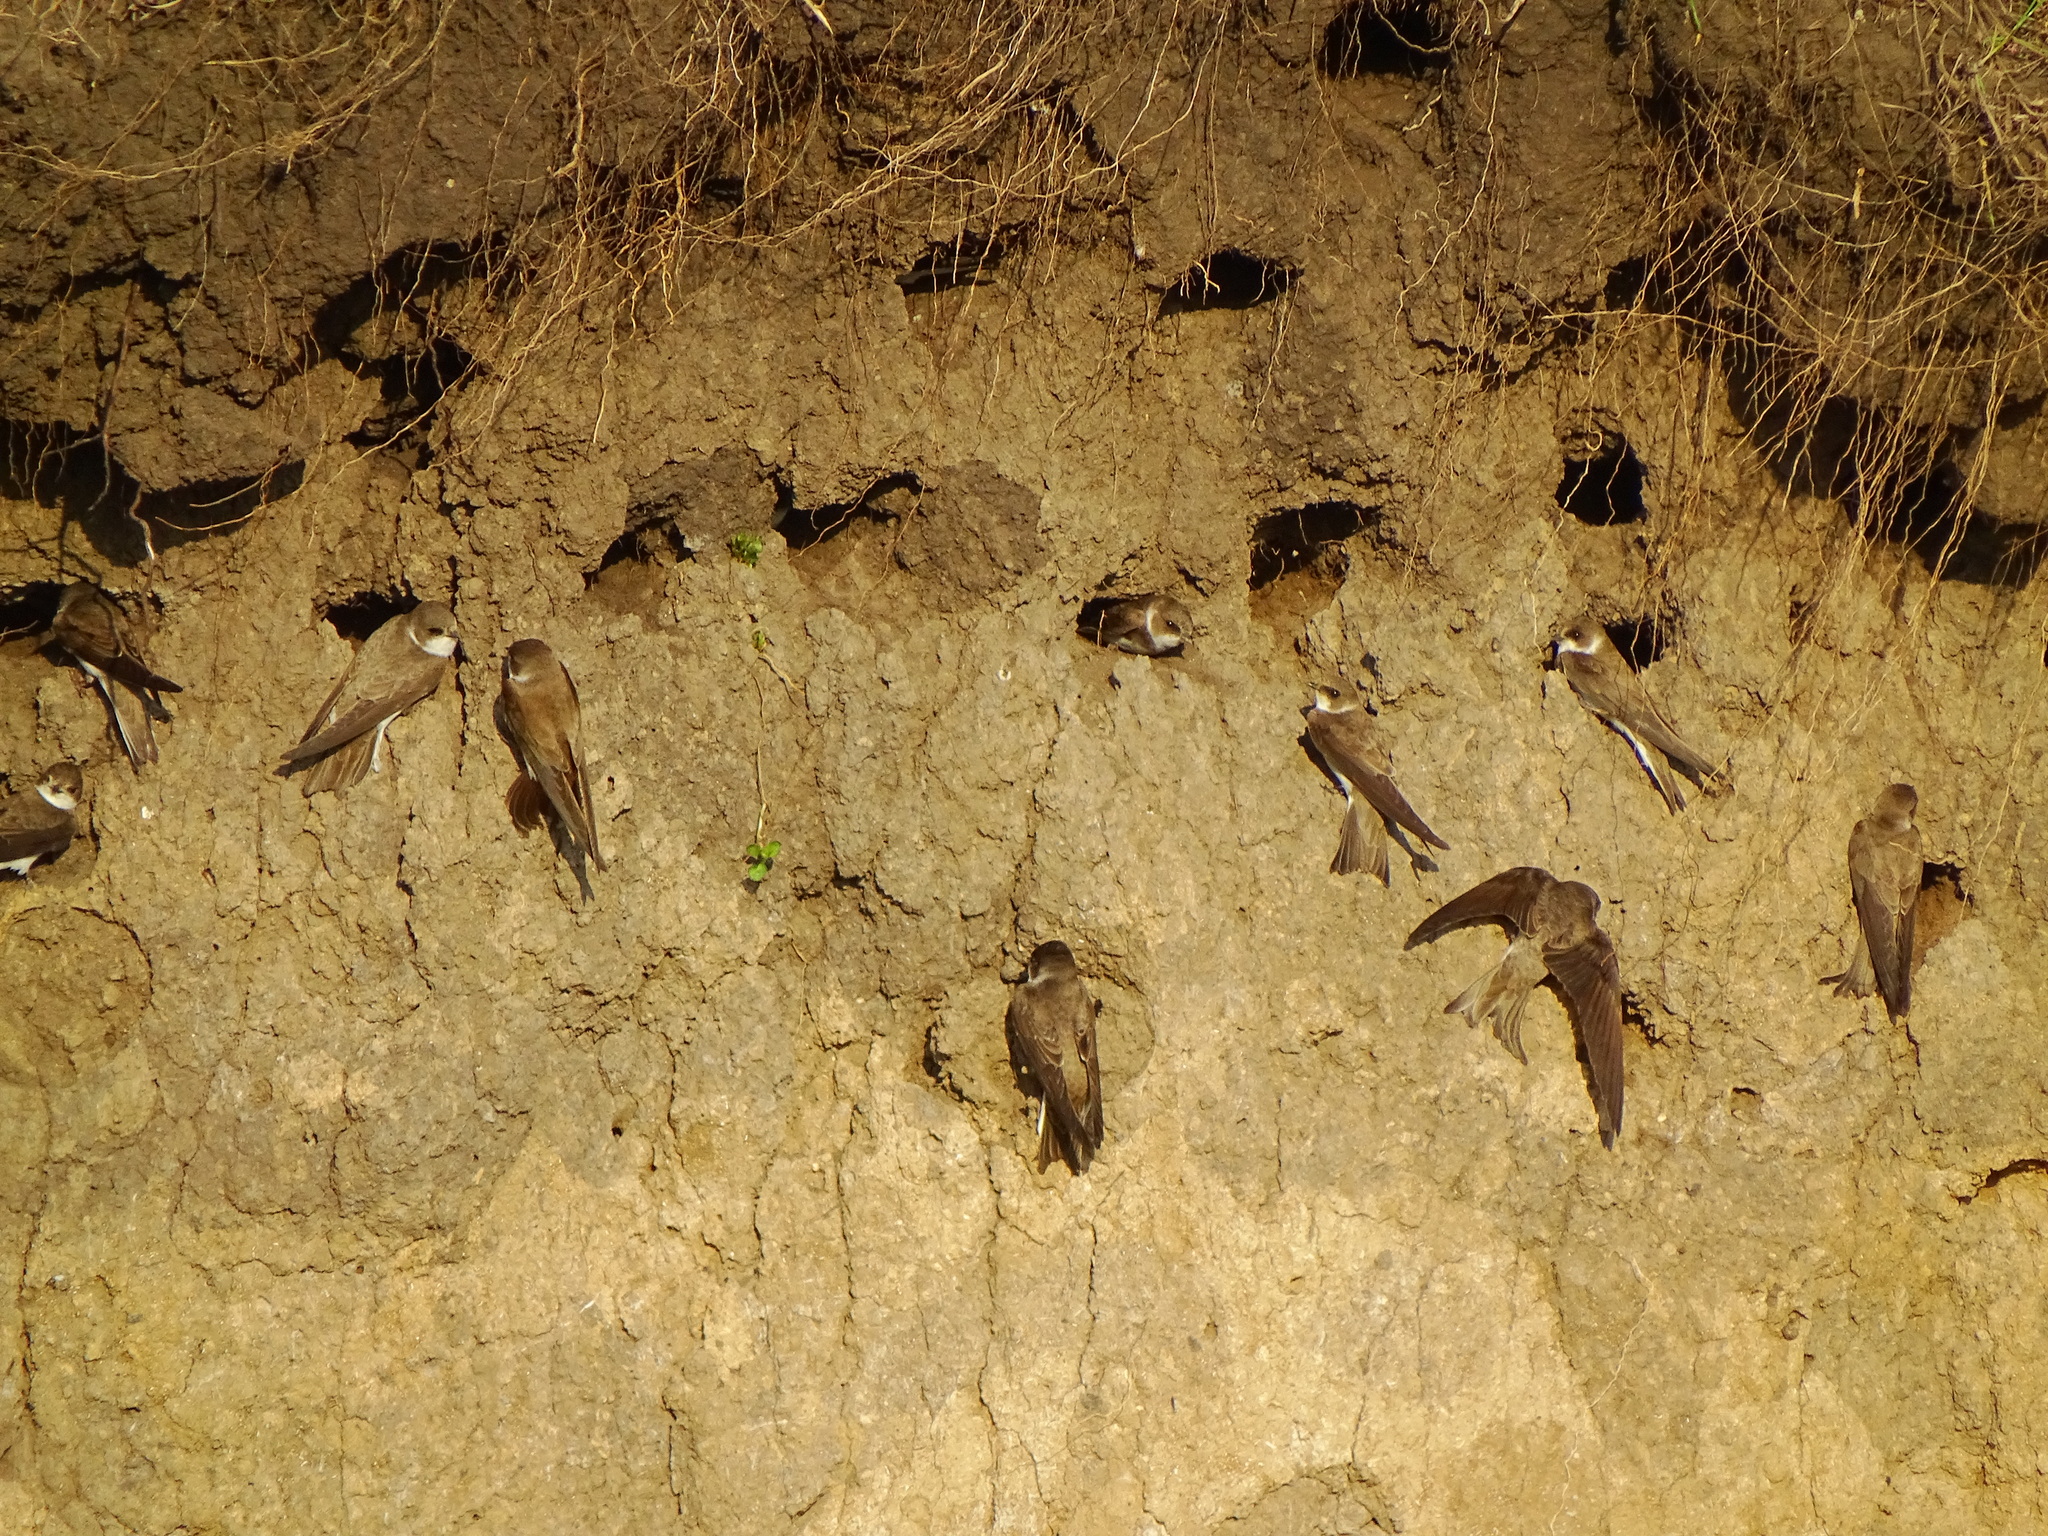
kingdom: Animalia
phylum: Chordata
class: Aves
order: Passeriformes
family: Hirundinidae
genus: Riparia
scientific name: Riparia riparia
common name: Sand martin
